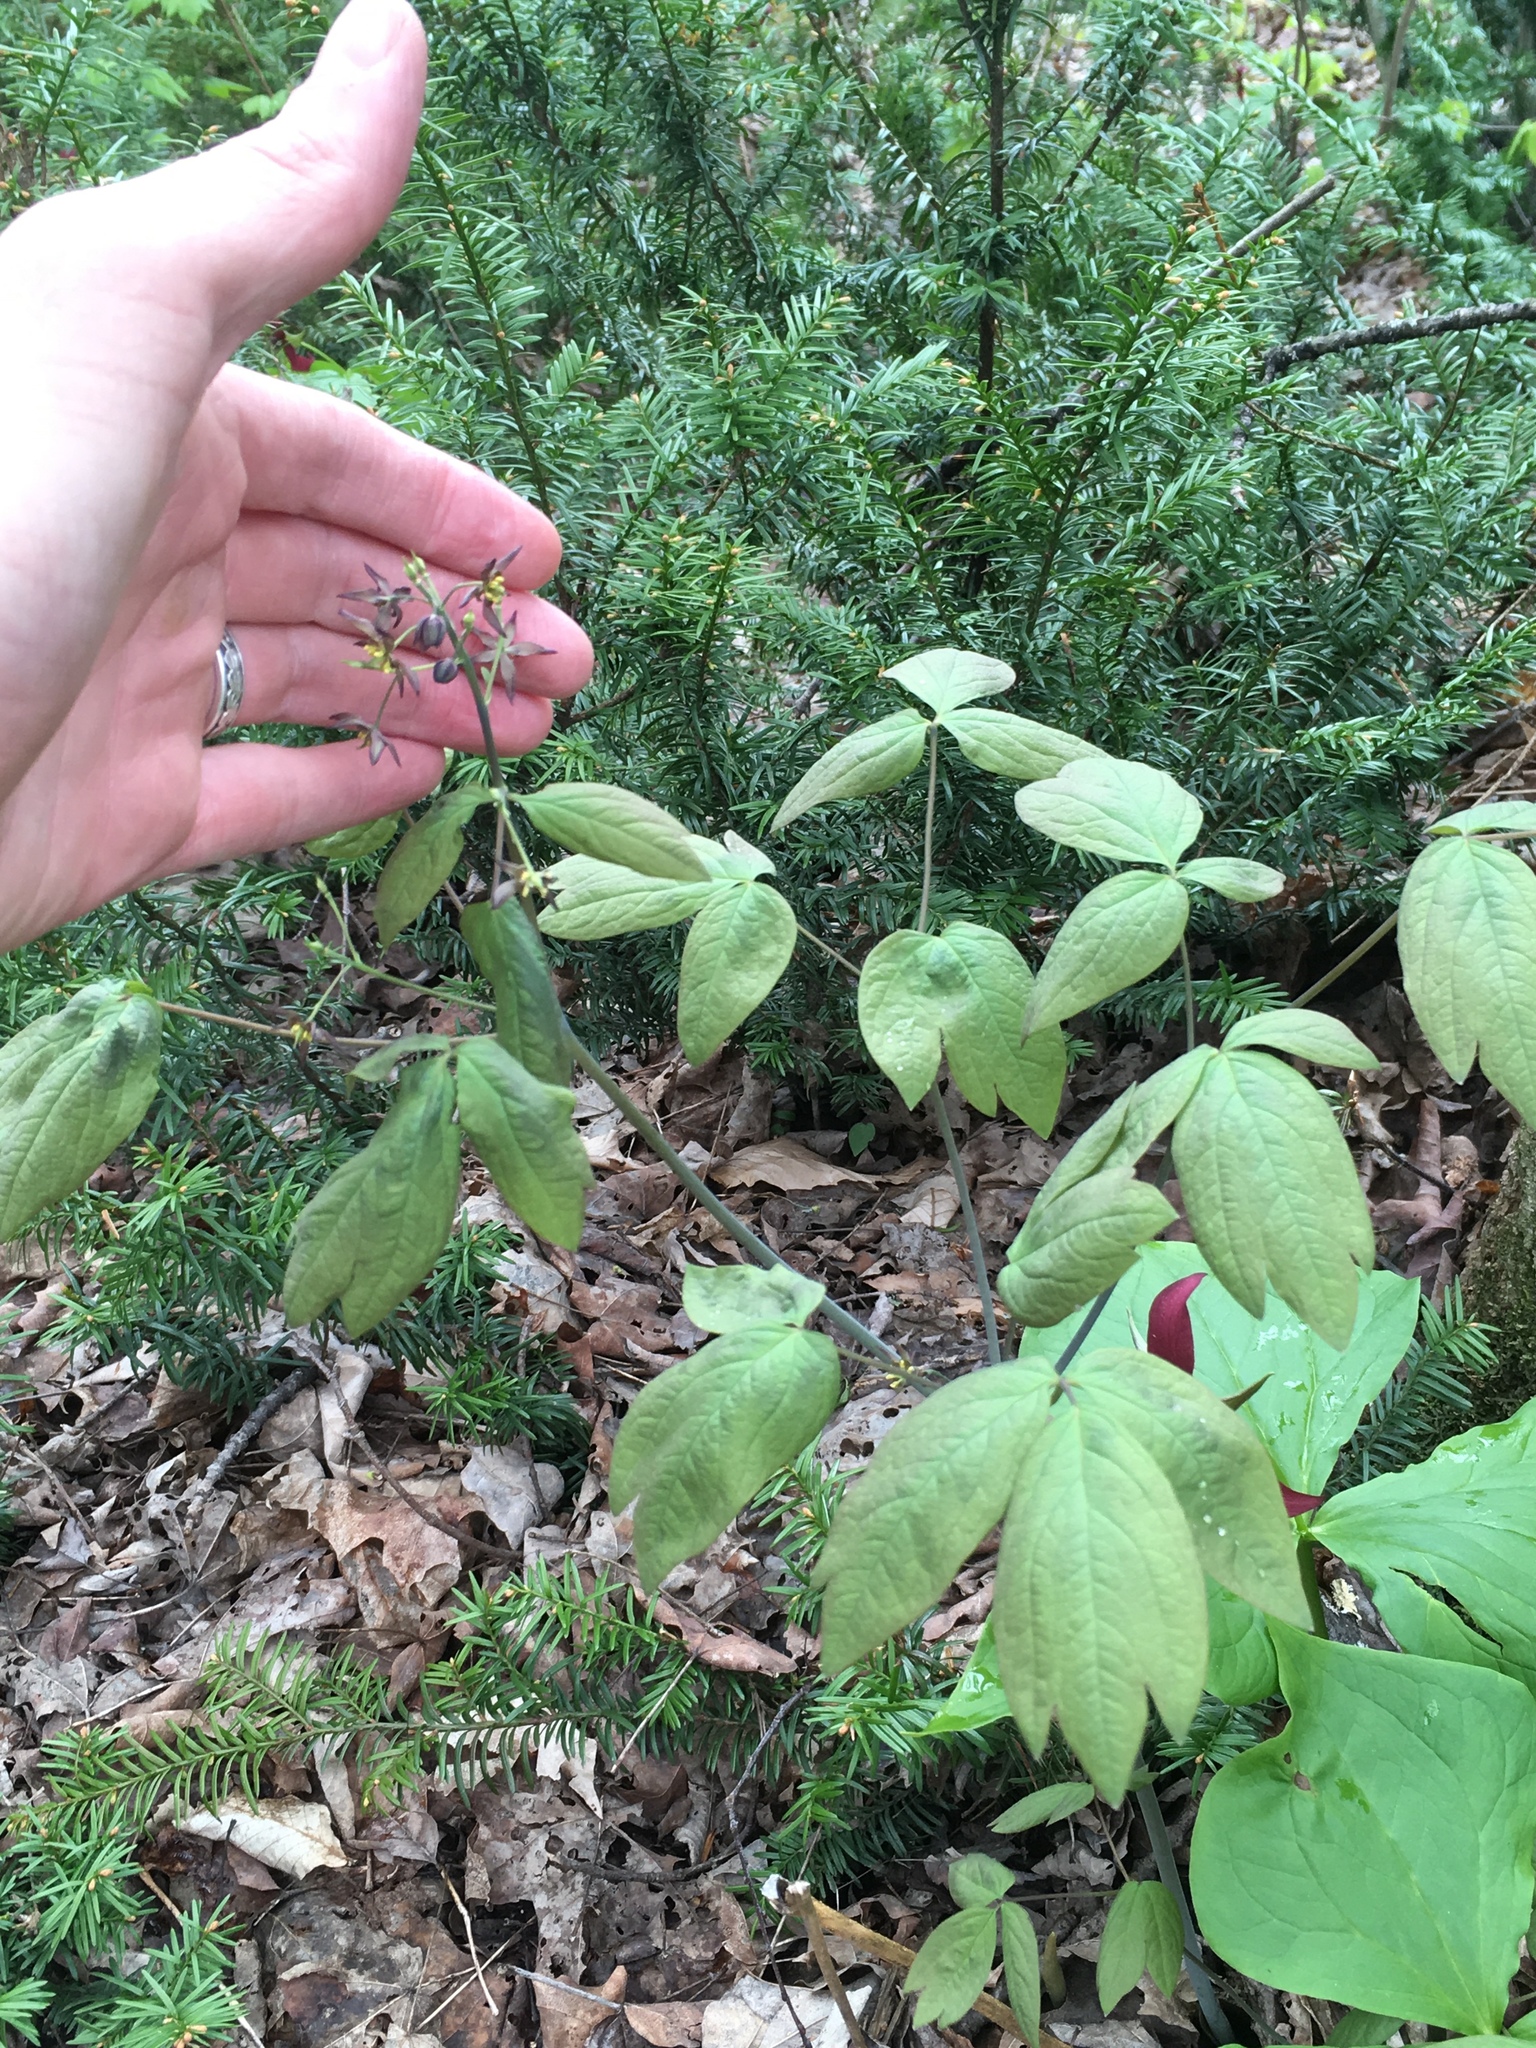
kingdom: Plantae
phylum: Tracheophyta
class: Magnoliopsida
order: Ranunculales
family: Berberidaceae
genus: Caulophyllum
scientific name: Caulophyllum giganteum
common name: Blue cohosh
